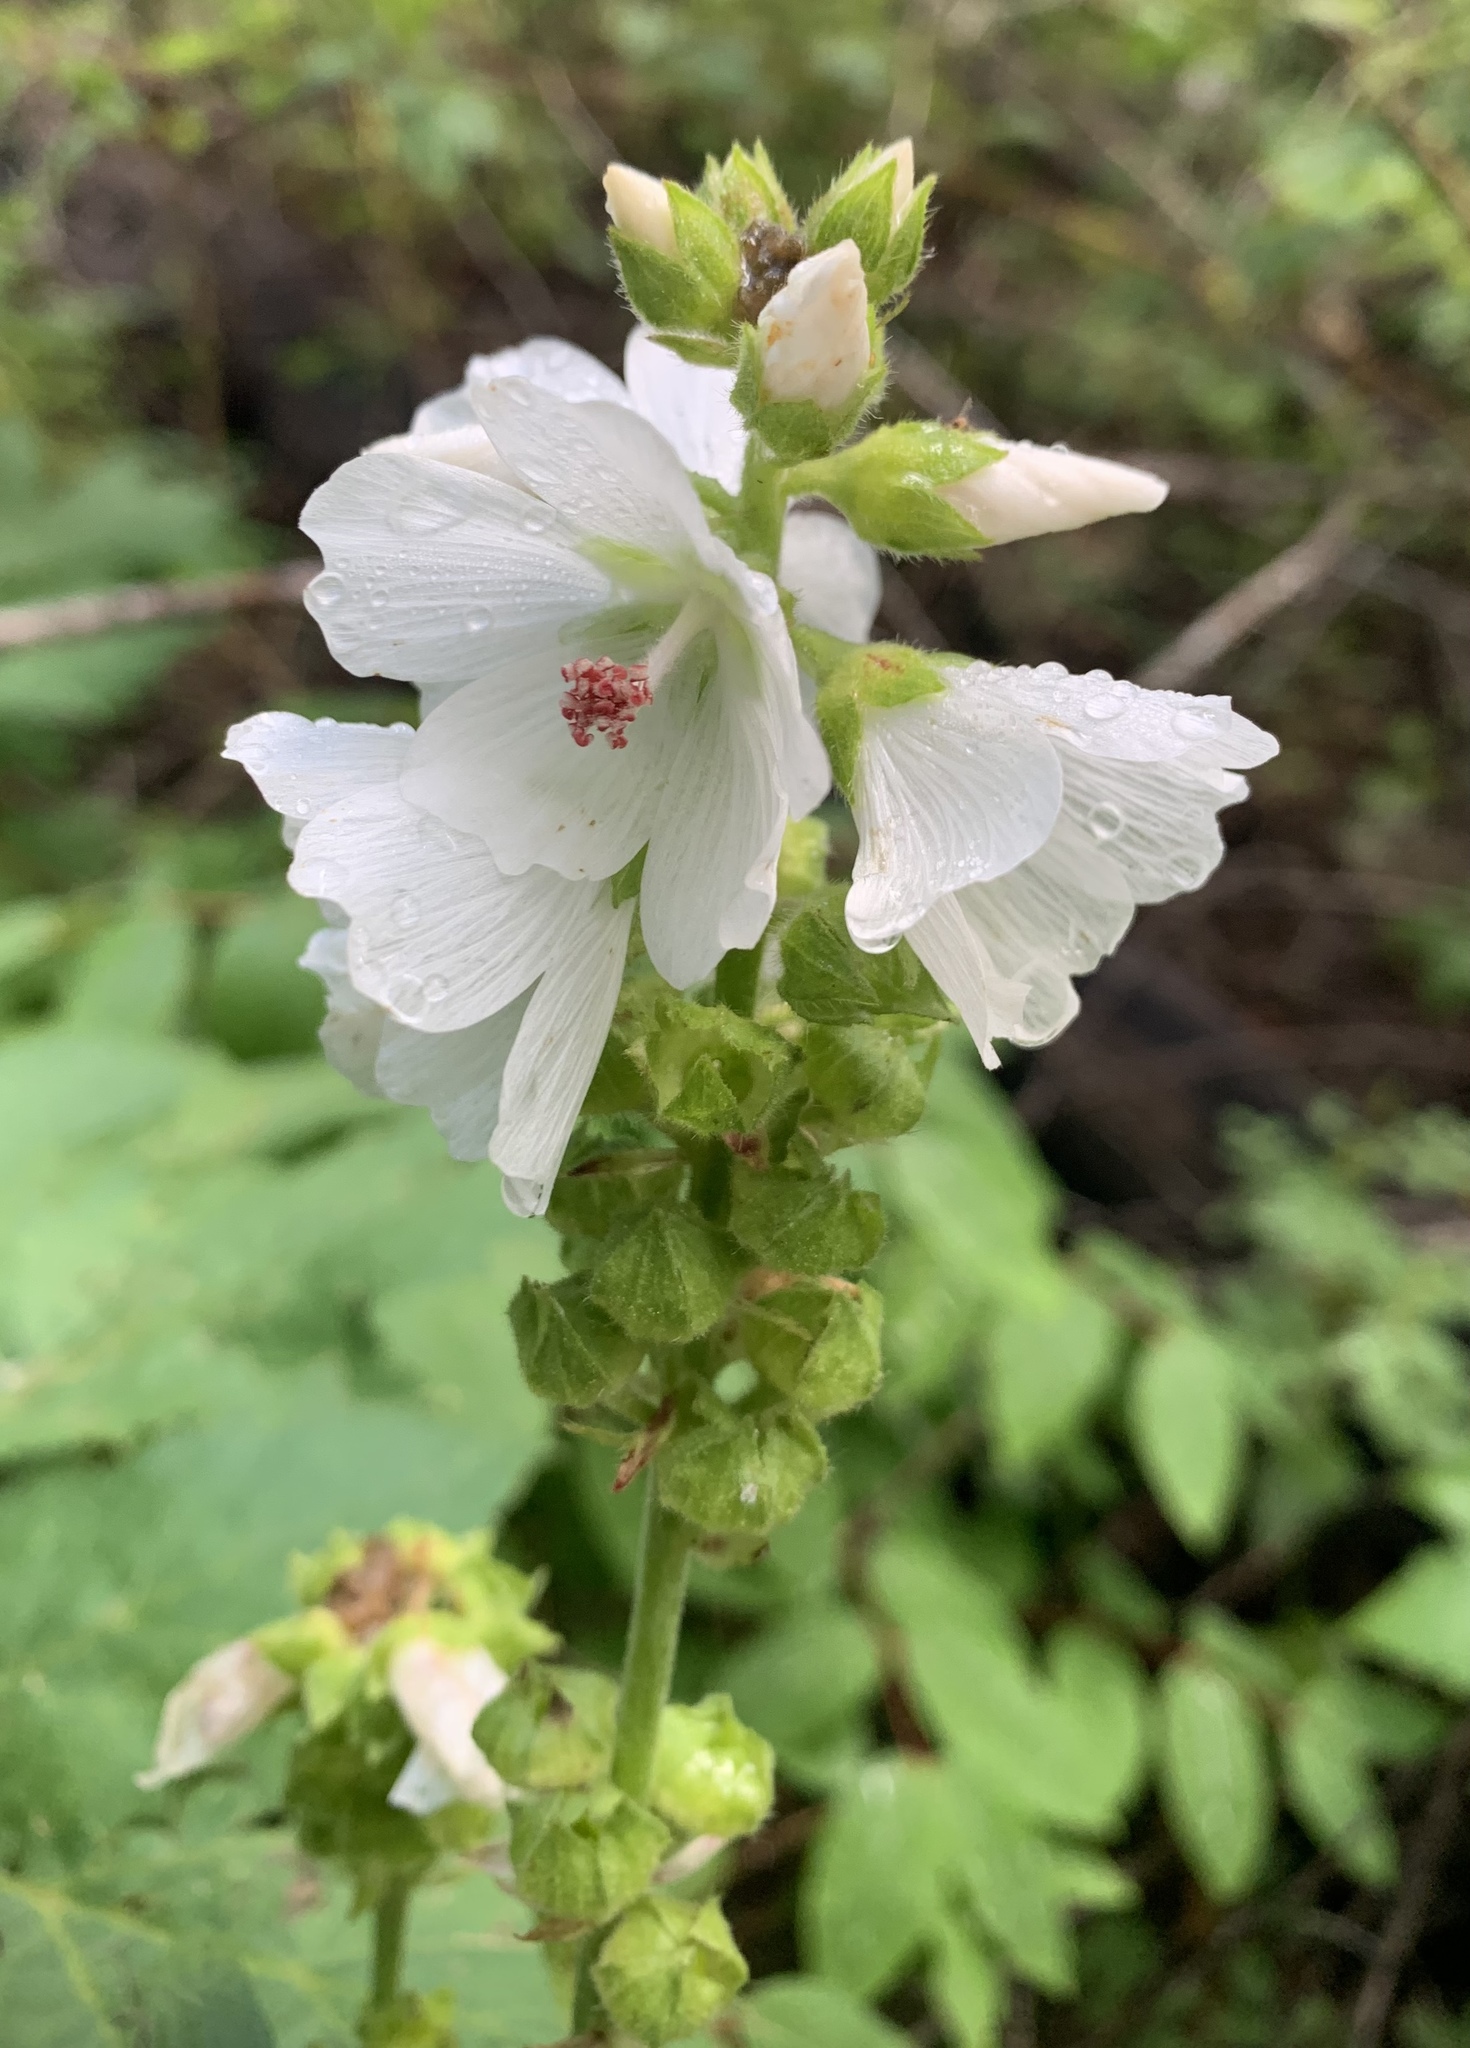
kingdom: Plantae
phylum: Tracheophyta
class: Magnoliopsida
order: Malvales
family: Malvaceae
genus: Sidalcea
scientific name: Sidalcea candida
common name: Prairie-mallow
